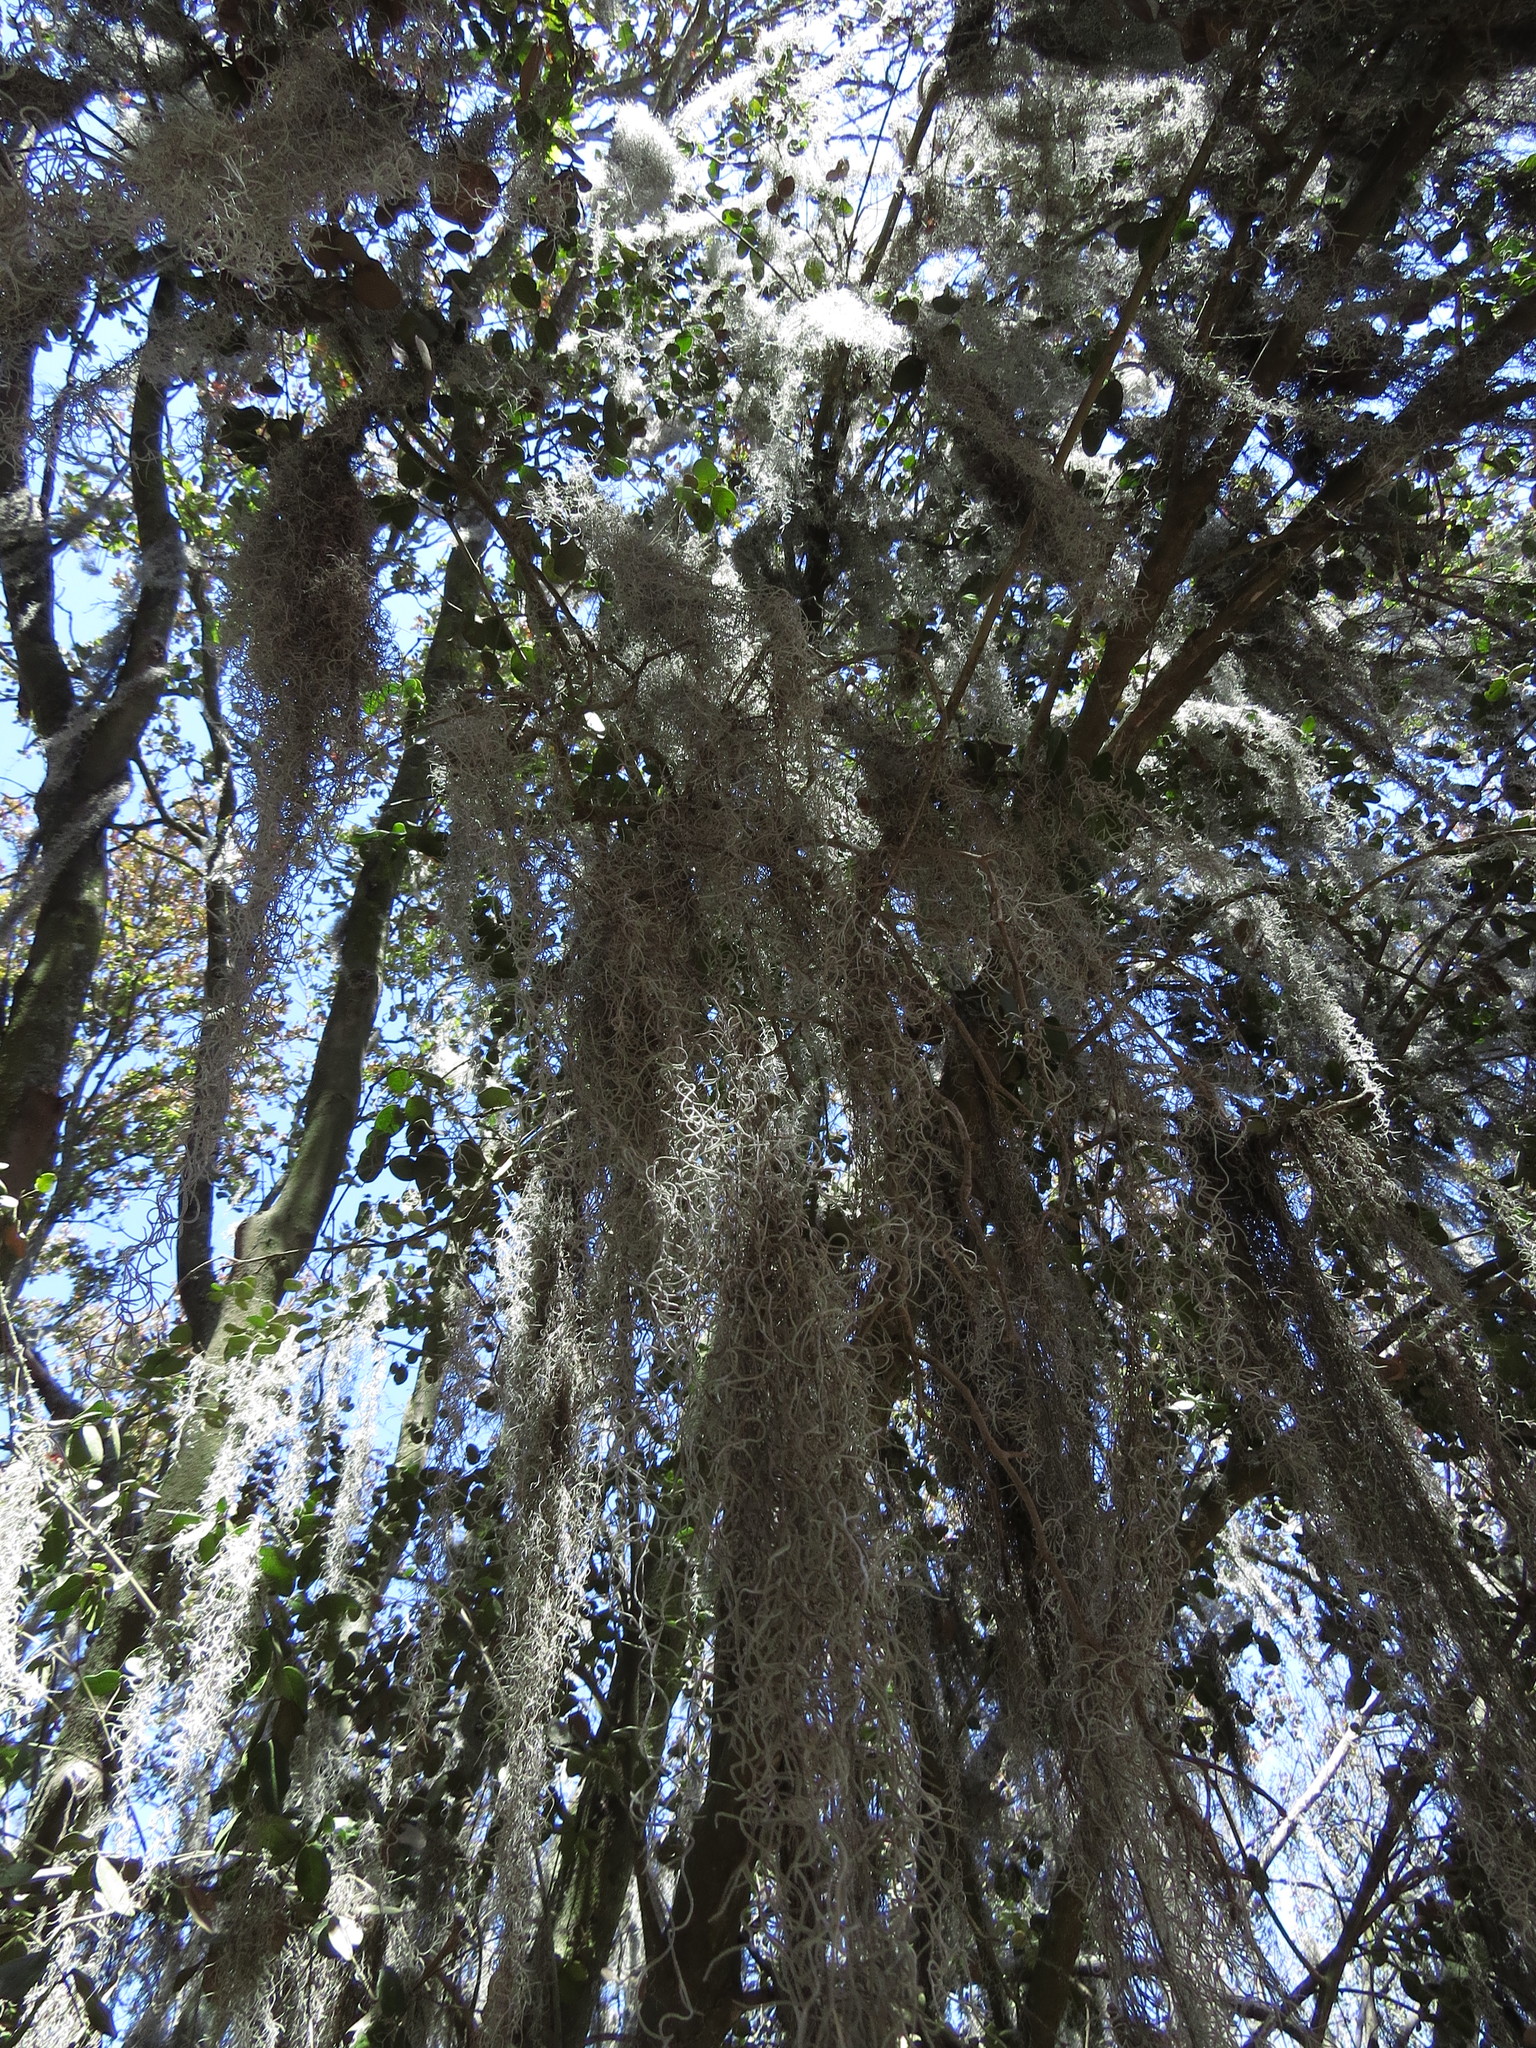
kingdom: Plantae
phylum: Tracheophyta
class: Liliopsida
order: Poales
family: Bromeliaceae
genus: Tillandsia
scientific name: Tillandsia usneoides
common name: Spanish moss
